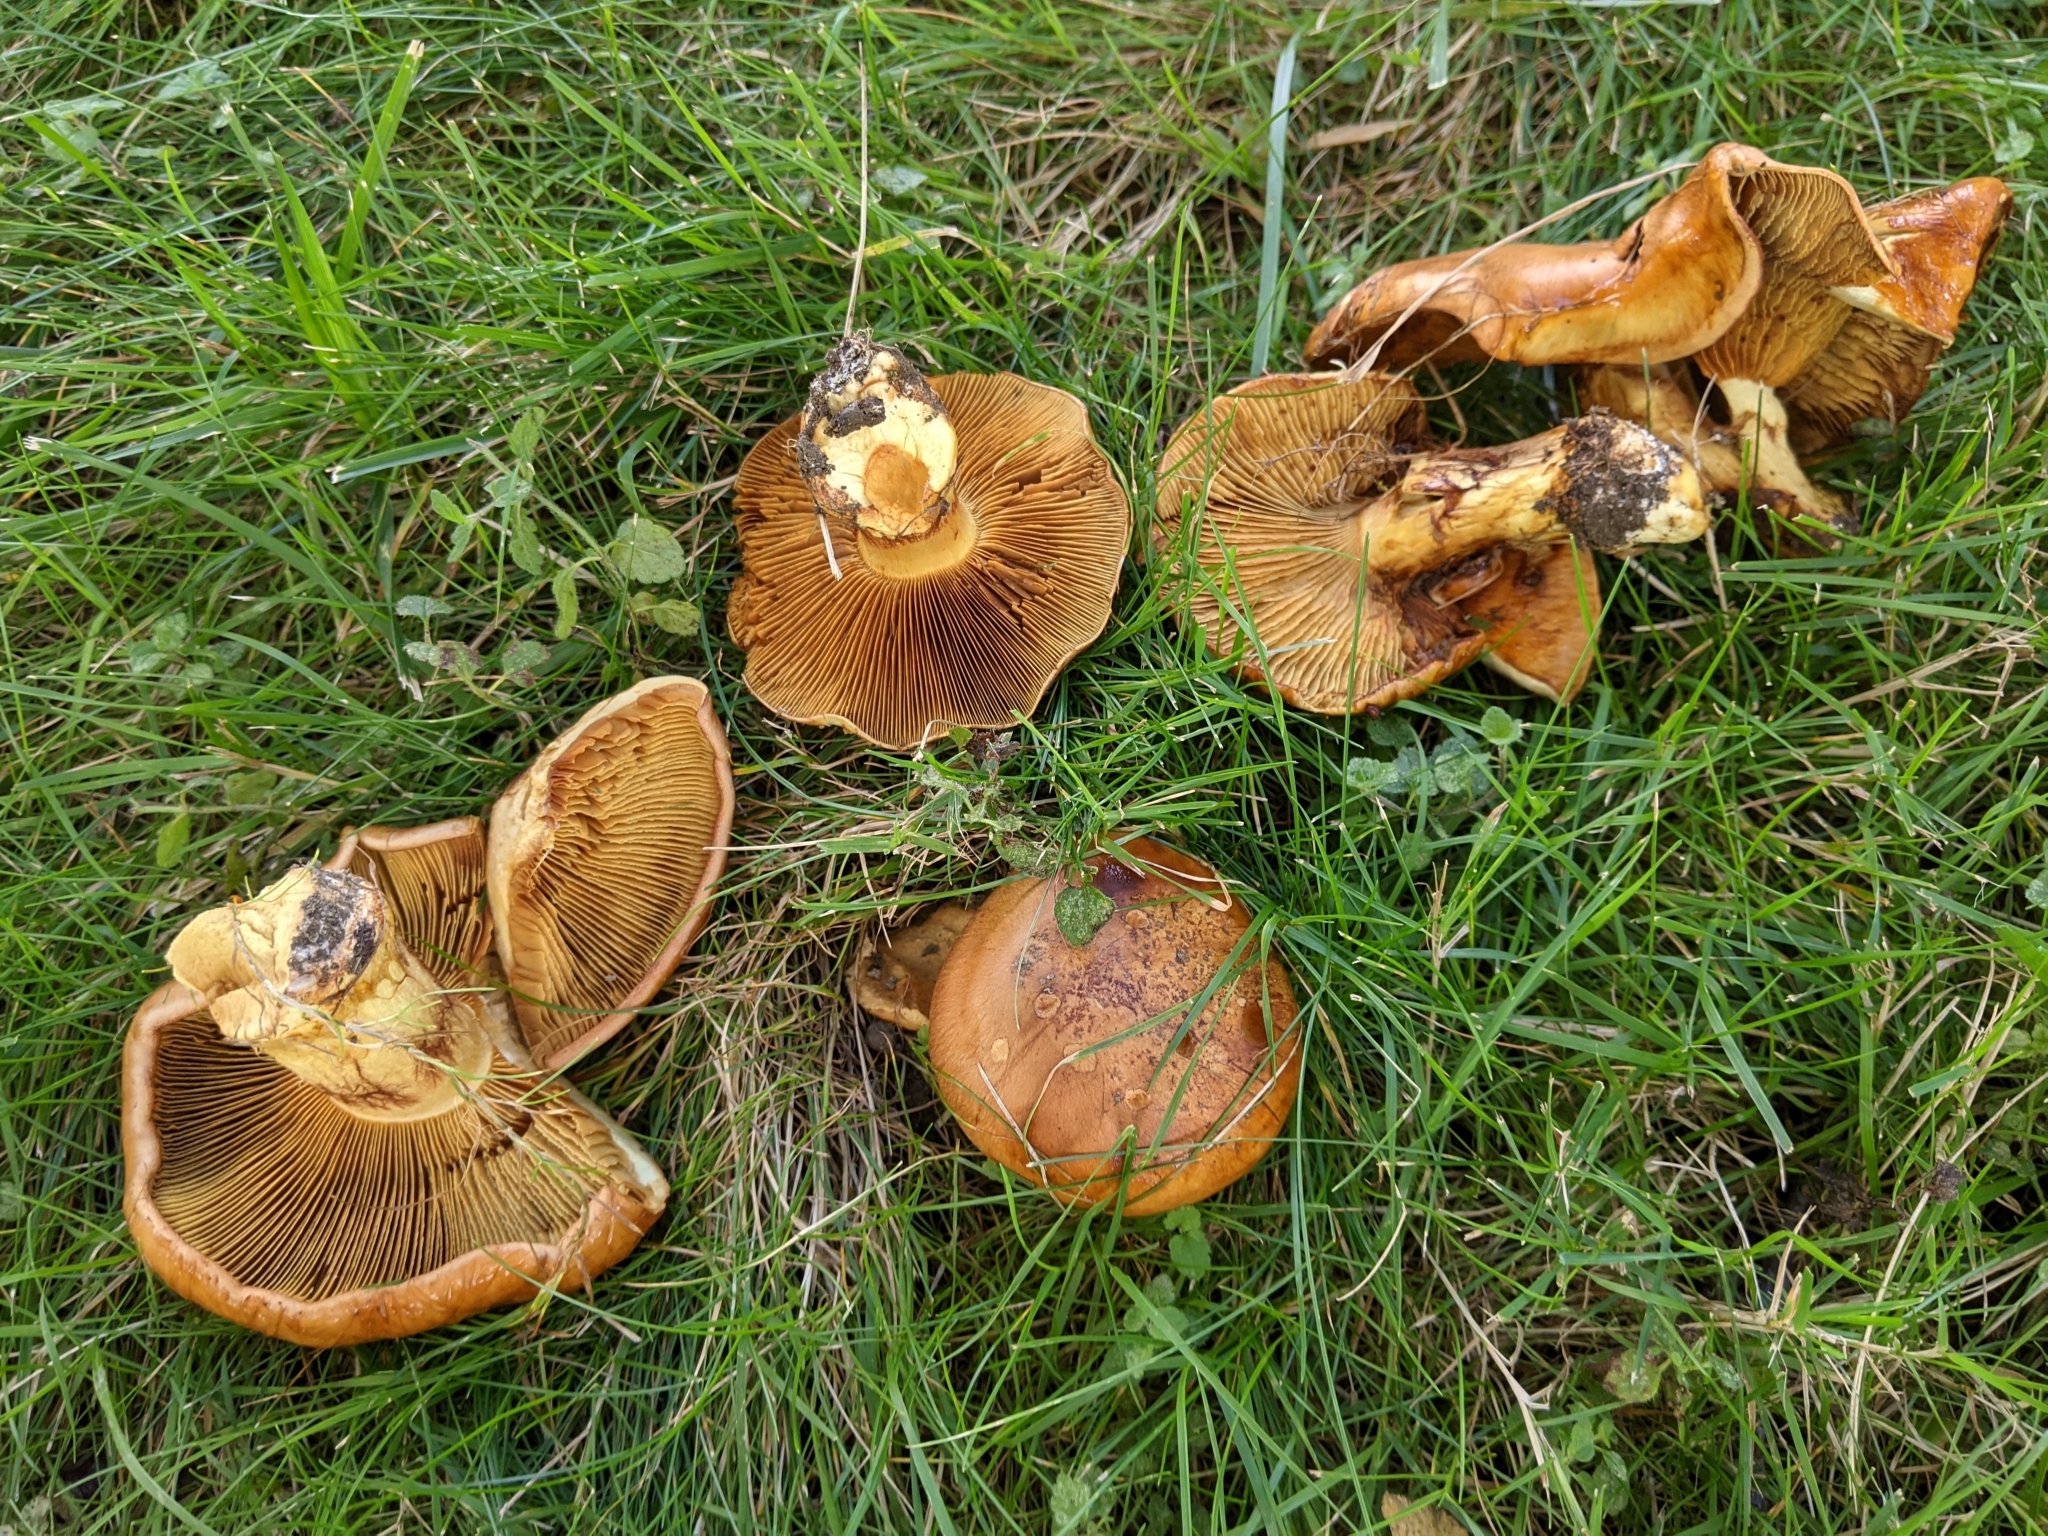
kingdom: Fungi
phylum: Basidiomycota
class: Agaricomycetes
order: Boletales
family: Paxillaceae
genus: Paxillus
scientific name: Paxillus involutus
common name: Brown roll rim
